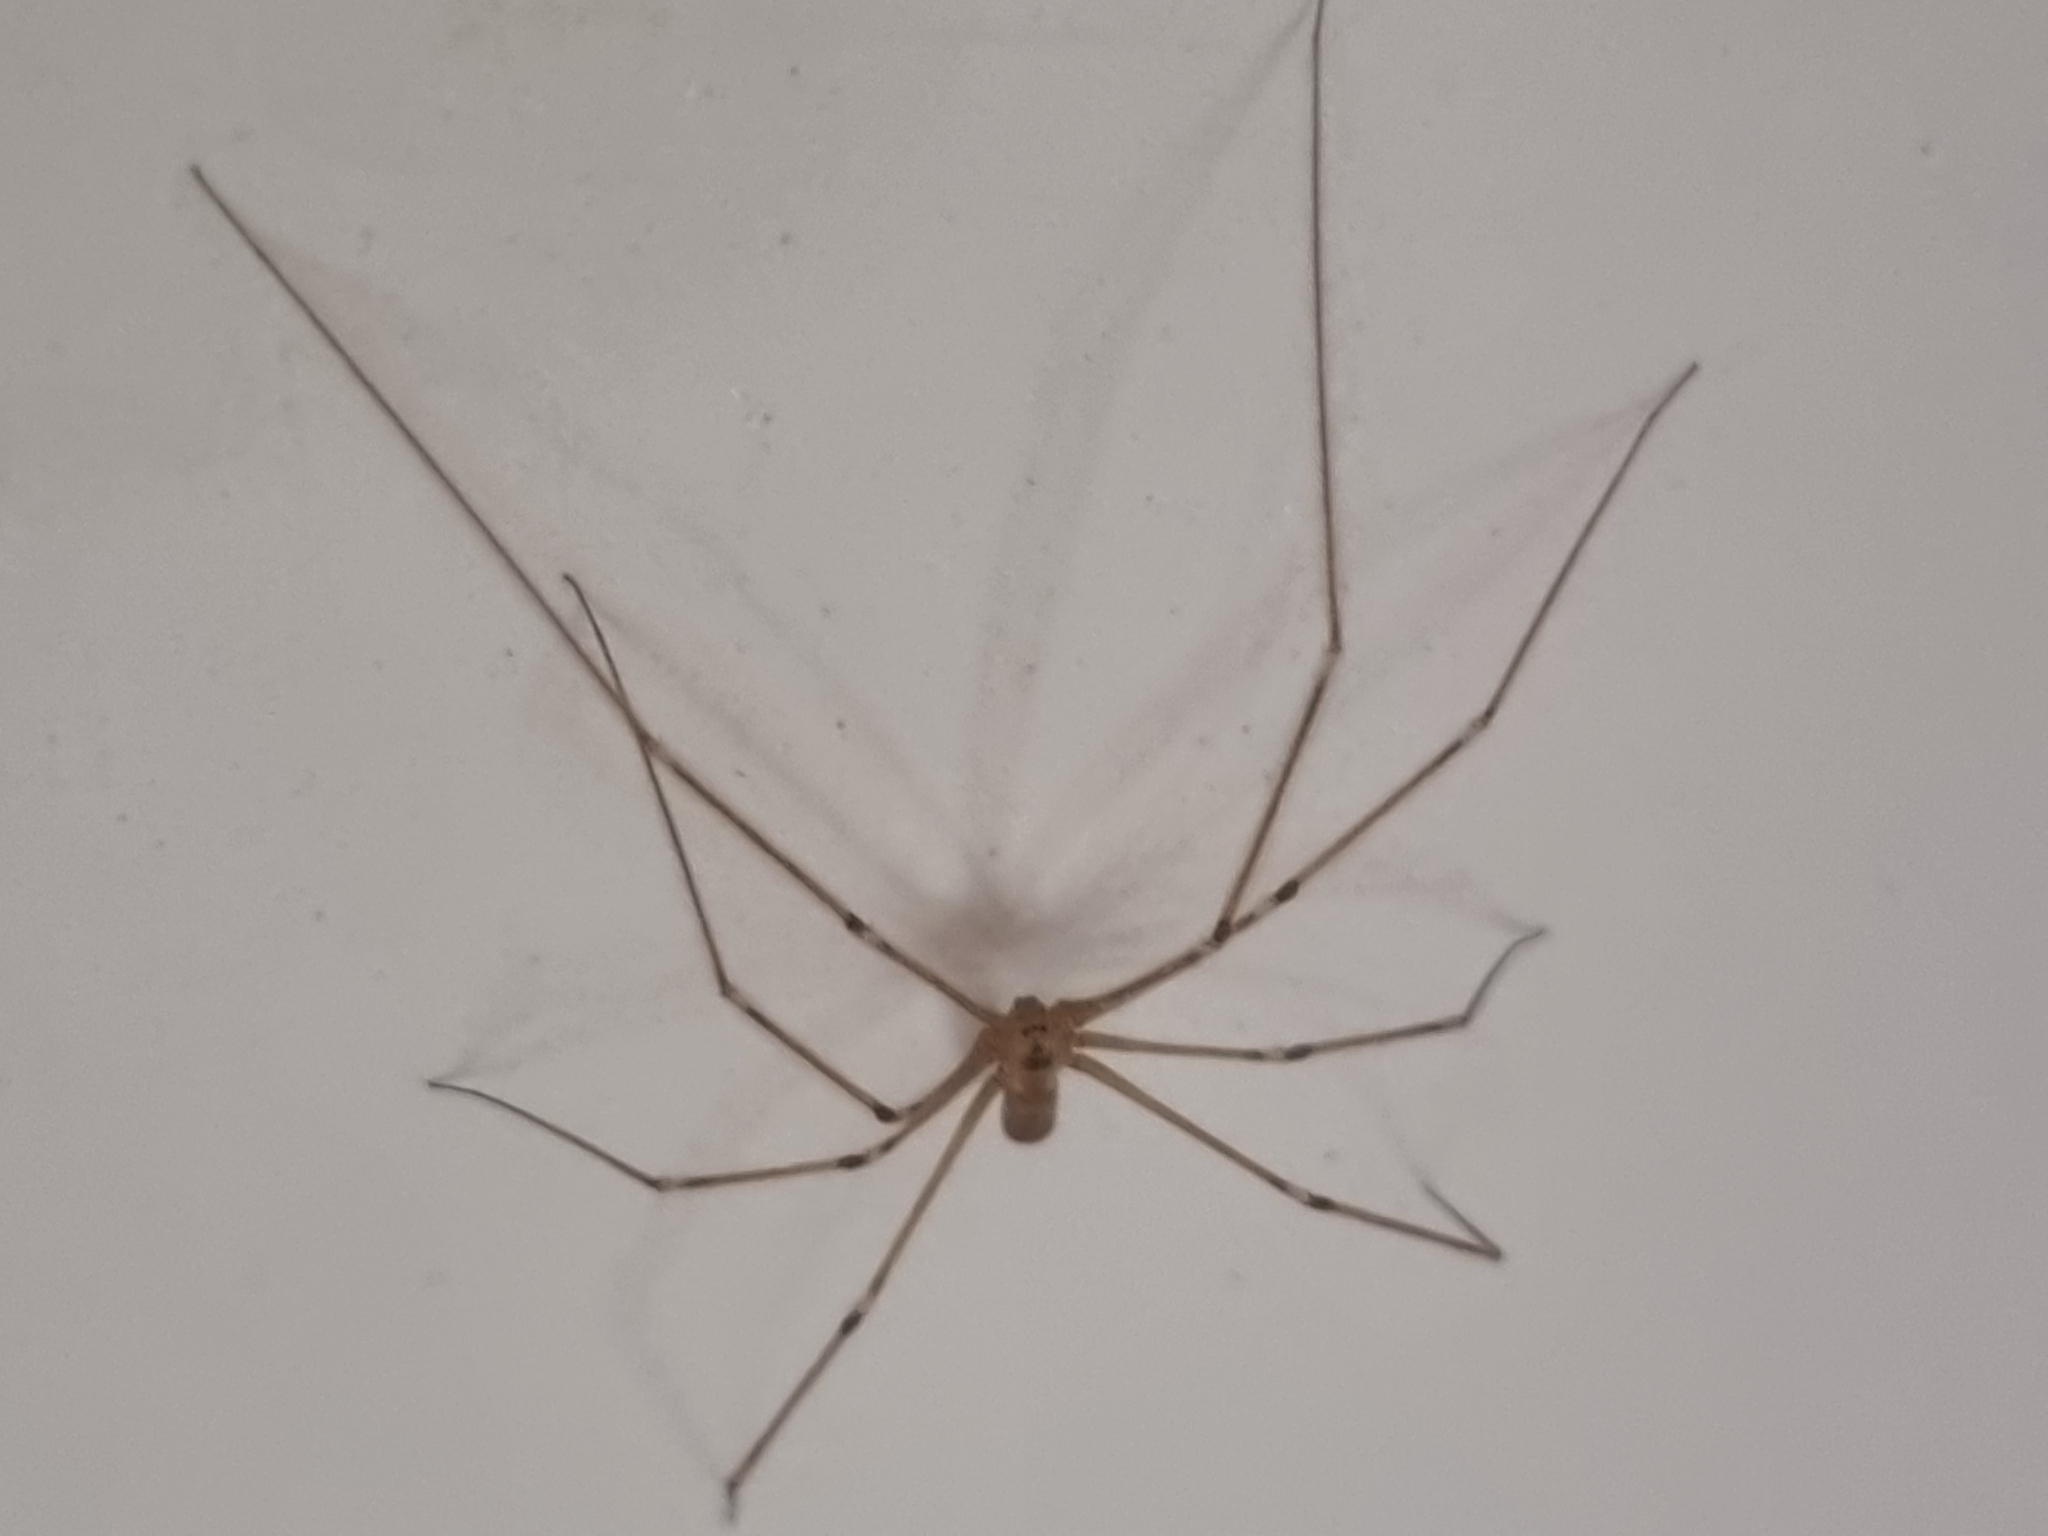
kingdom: Animalia
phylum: Arthropoda
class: Arachnida
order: Araneae
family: Pholcidae
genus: Pholcus
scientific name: Pholcus phalangioides
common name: Longbodied cellar spider
